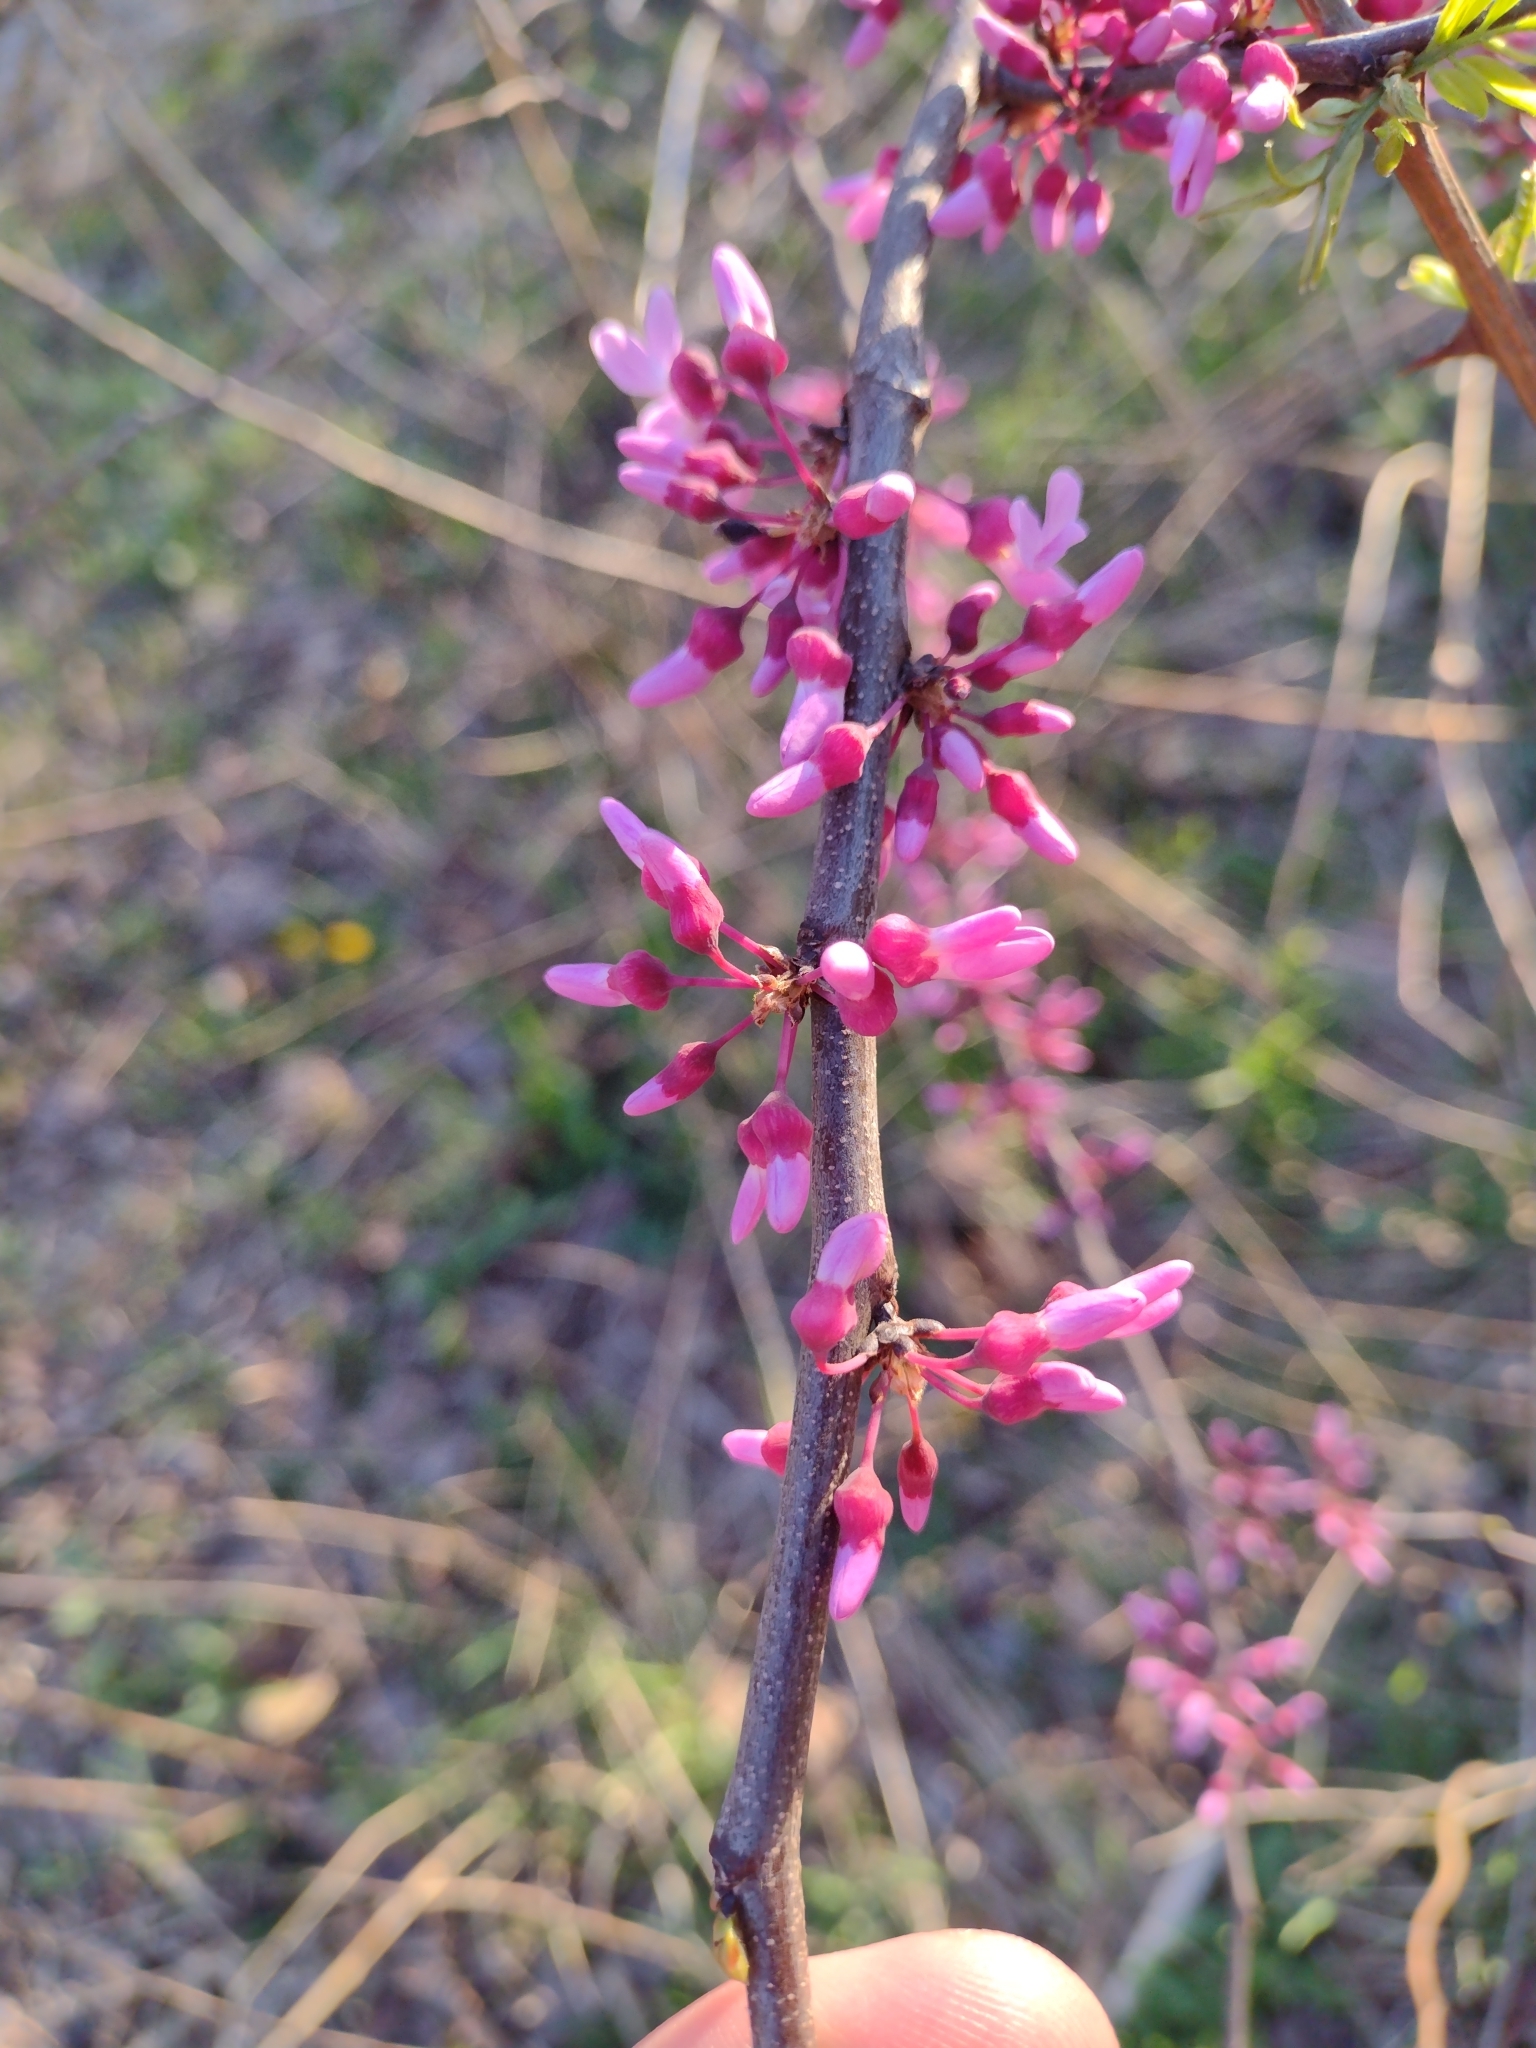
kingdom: Plantae
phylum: Tracheophyta
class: Magnoliopsida
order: Fabales
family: Fabaceae
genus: Cercis
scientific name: Cercis canadensis
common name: Eastern redbud
